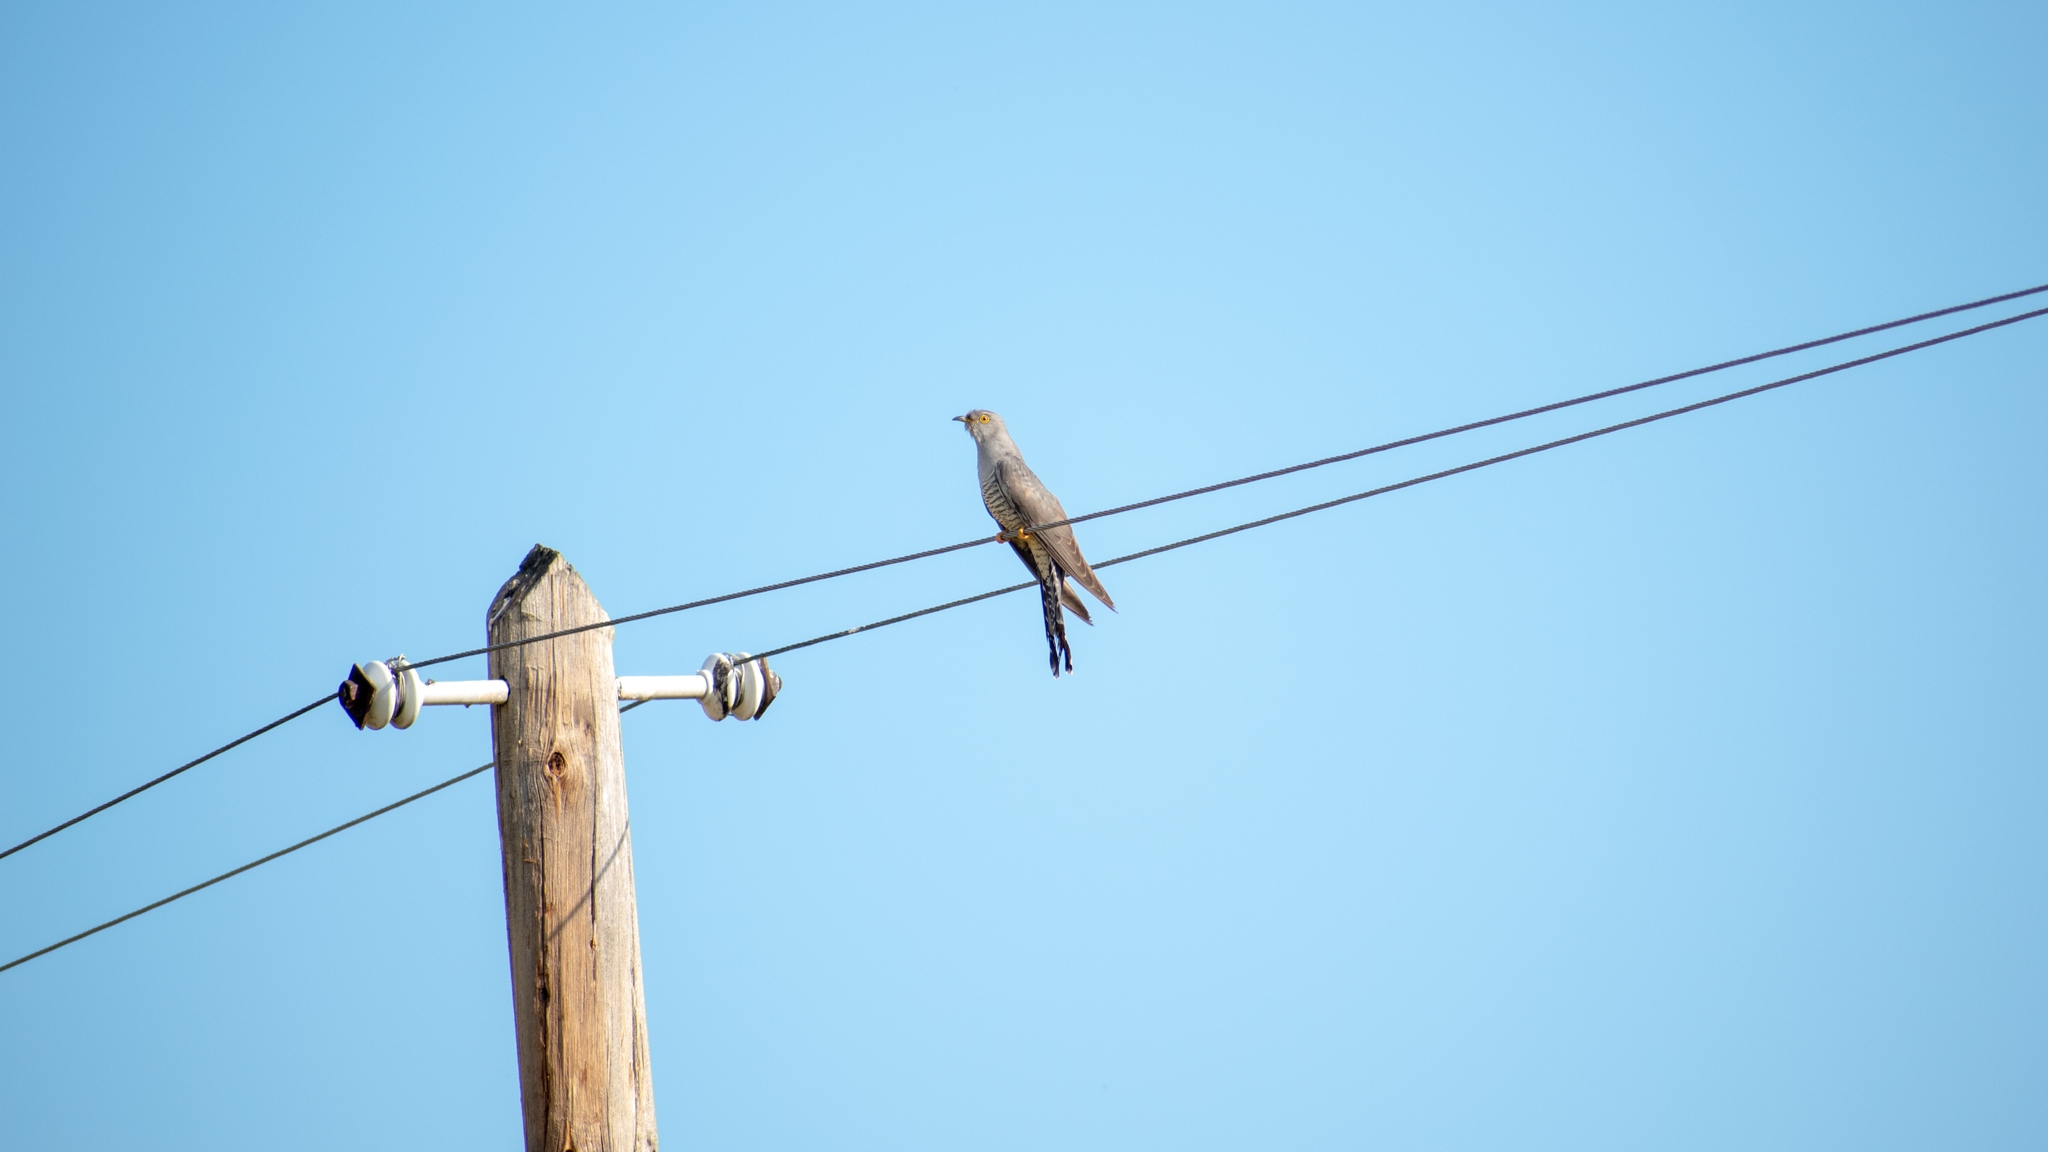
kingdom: Animalia
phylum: Chordata
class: Aves
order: Cuculiformes
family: Cuculidae
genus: Cuculus
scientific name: Cuculus canorus
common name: Common cuckoo
